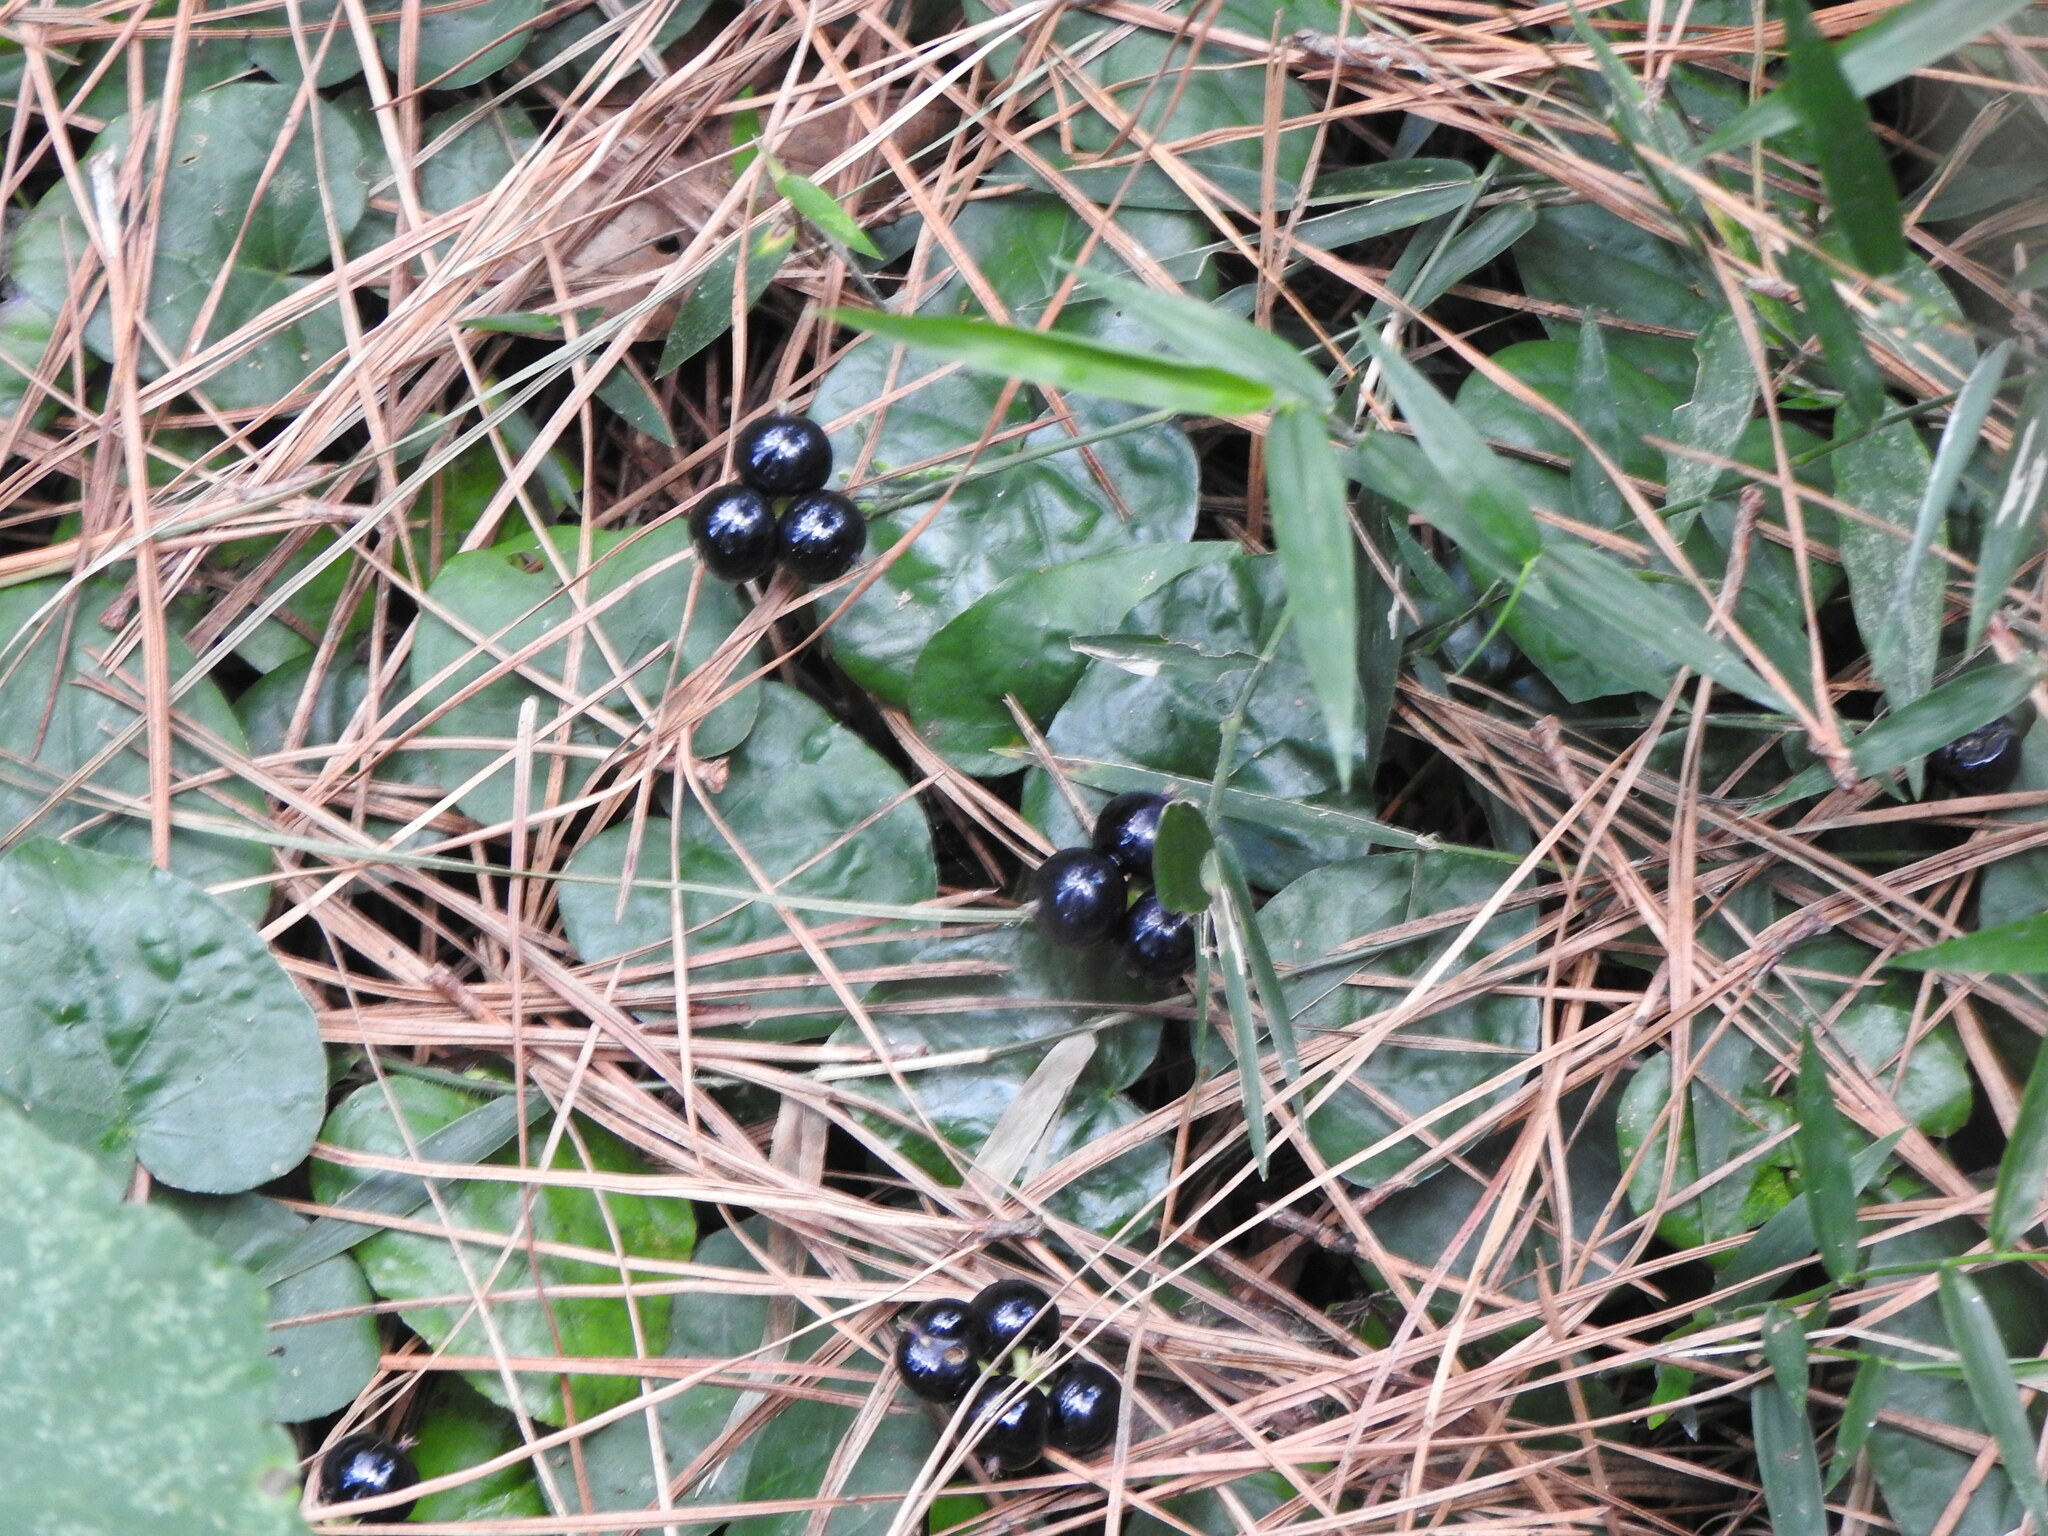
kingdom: Plantae
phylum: Tracheophyta
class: Magnoliopsida
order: Gentianales
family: Rubiaceae
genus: Geophila
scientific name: Geophila macropoda
